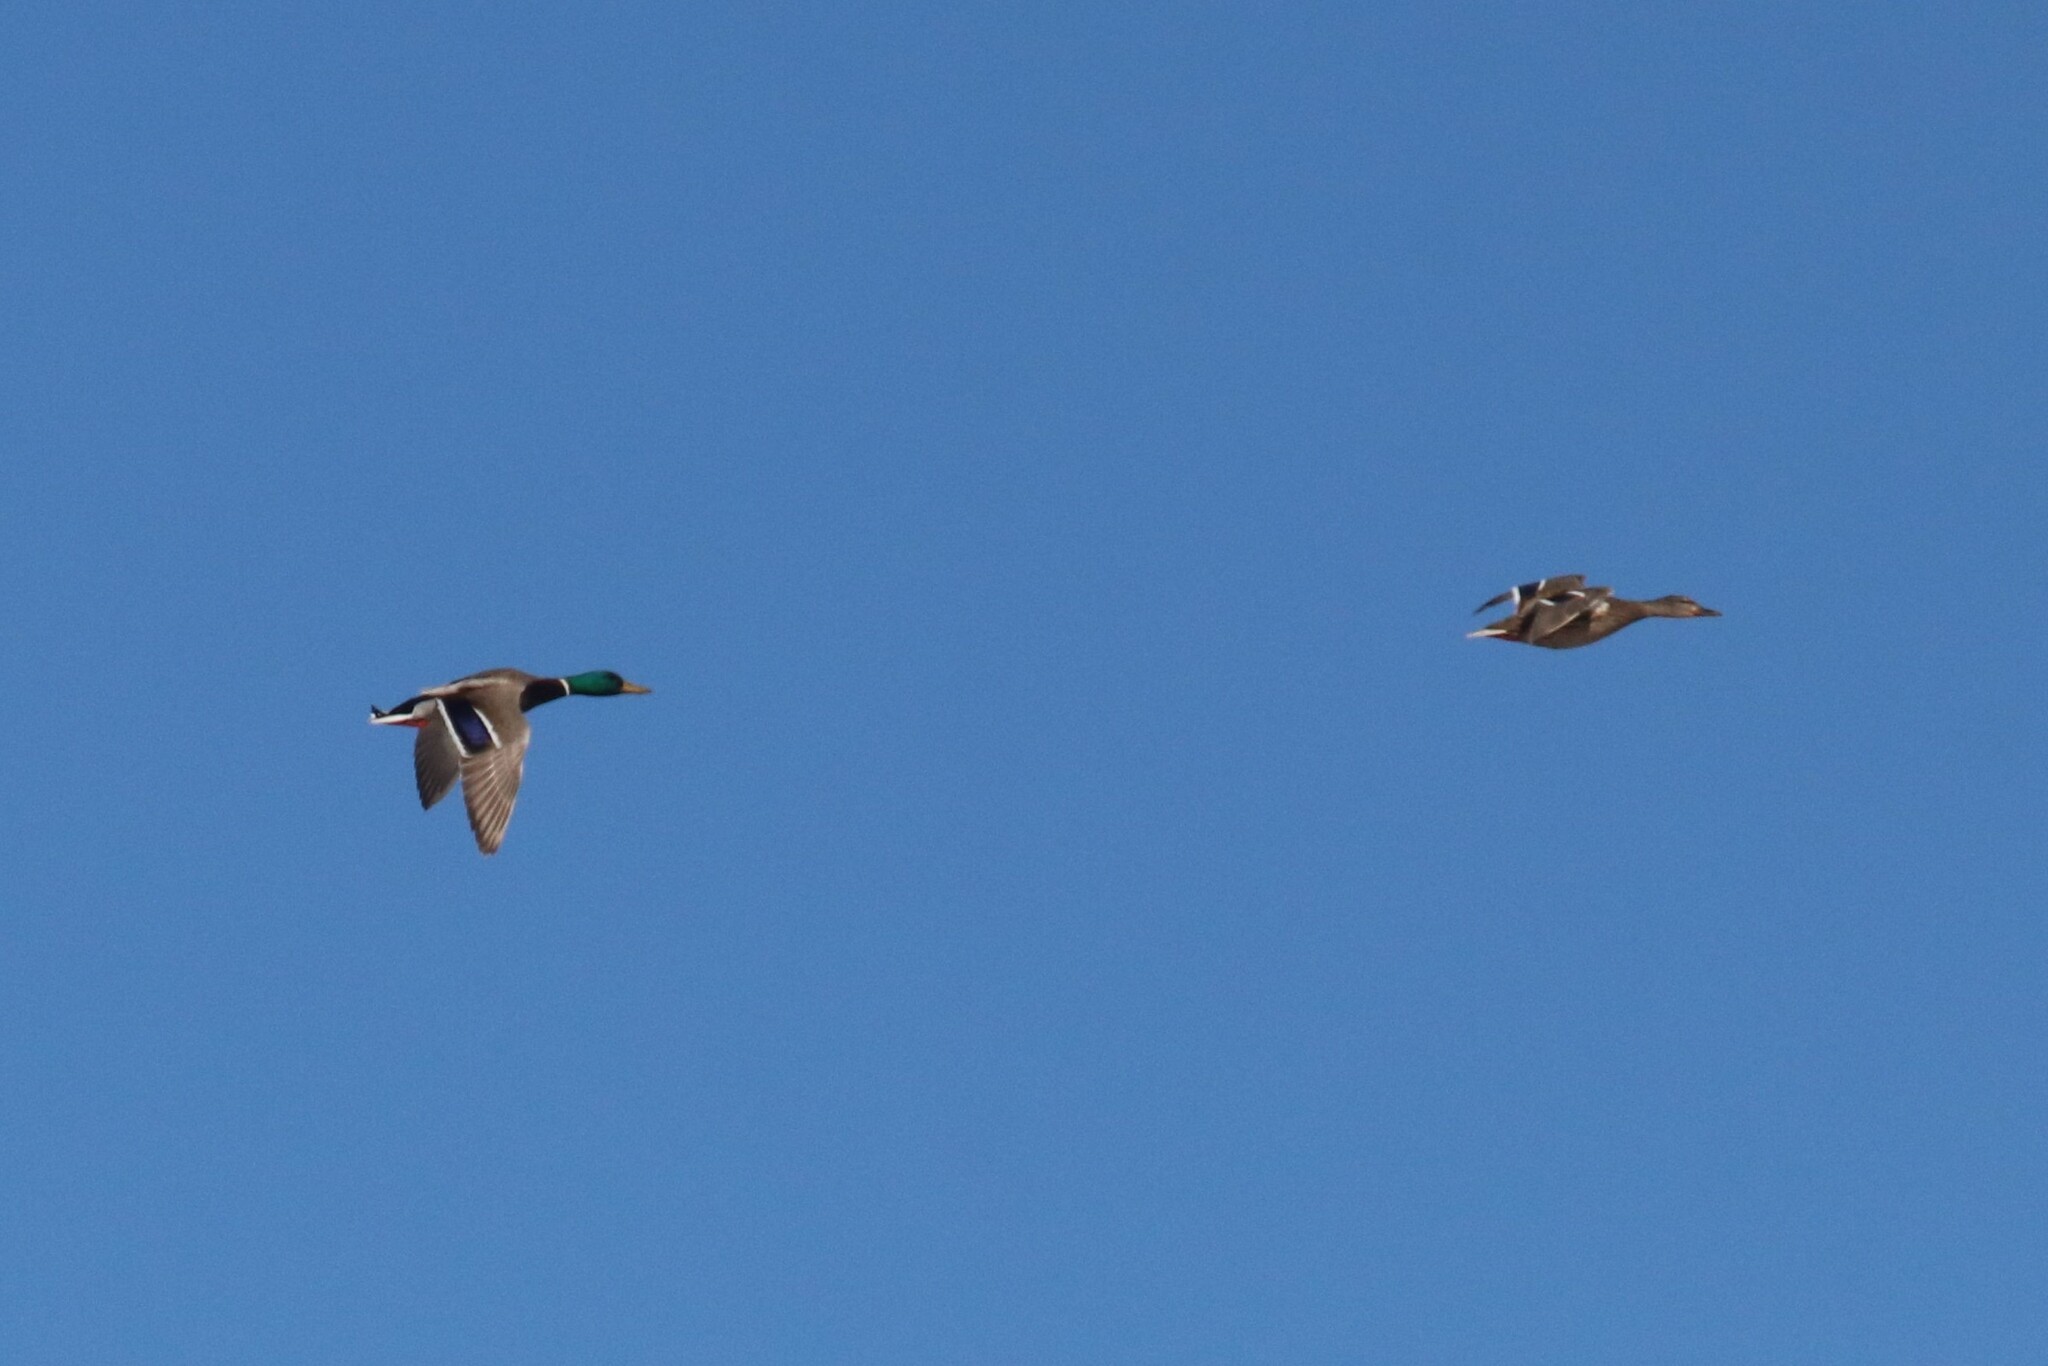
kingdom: Animalia
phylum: Chordata
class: Aves
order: Anseriformes
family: Anatidae
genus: Anas
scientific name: Anas platyrhynchos
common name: Mallard
